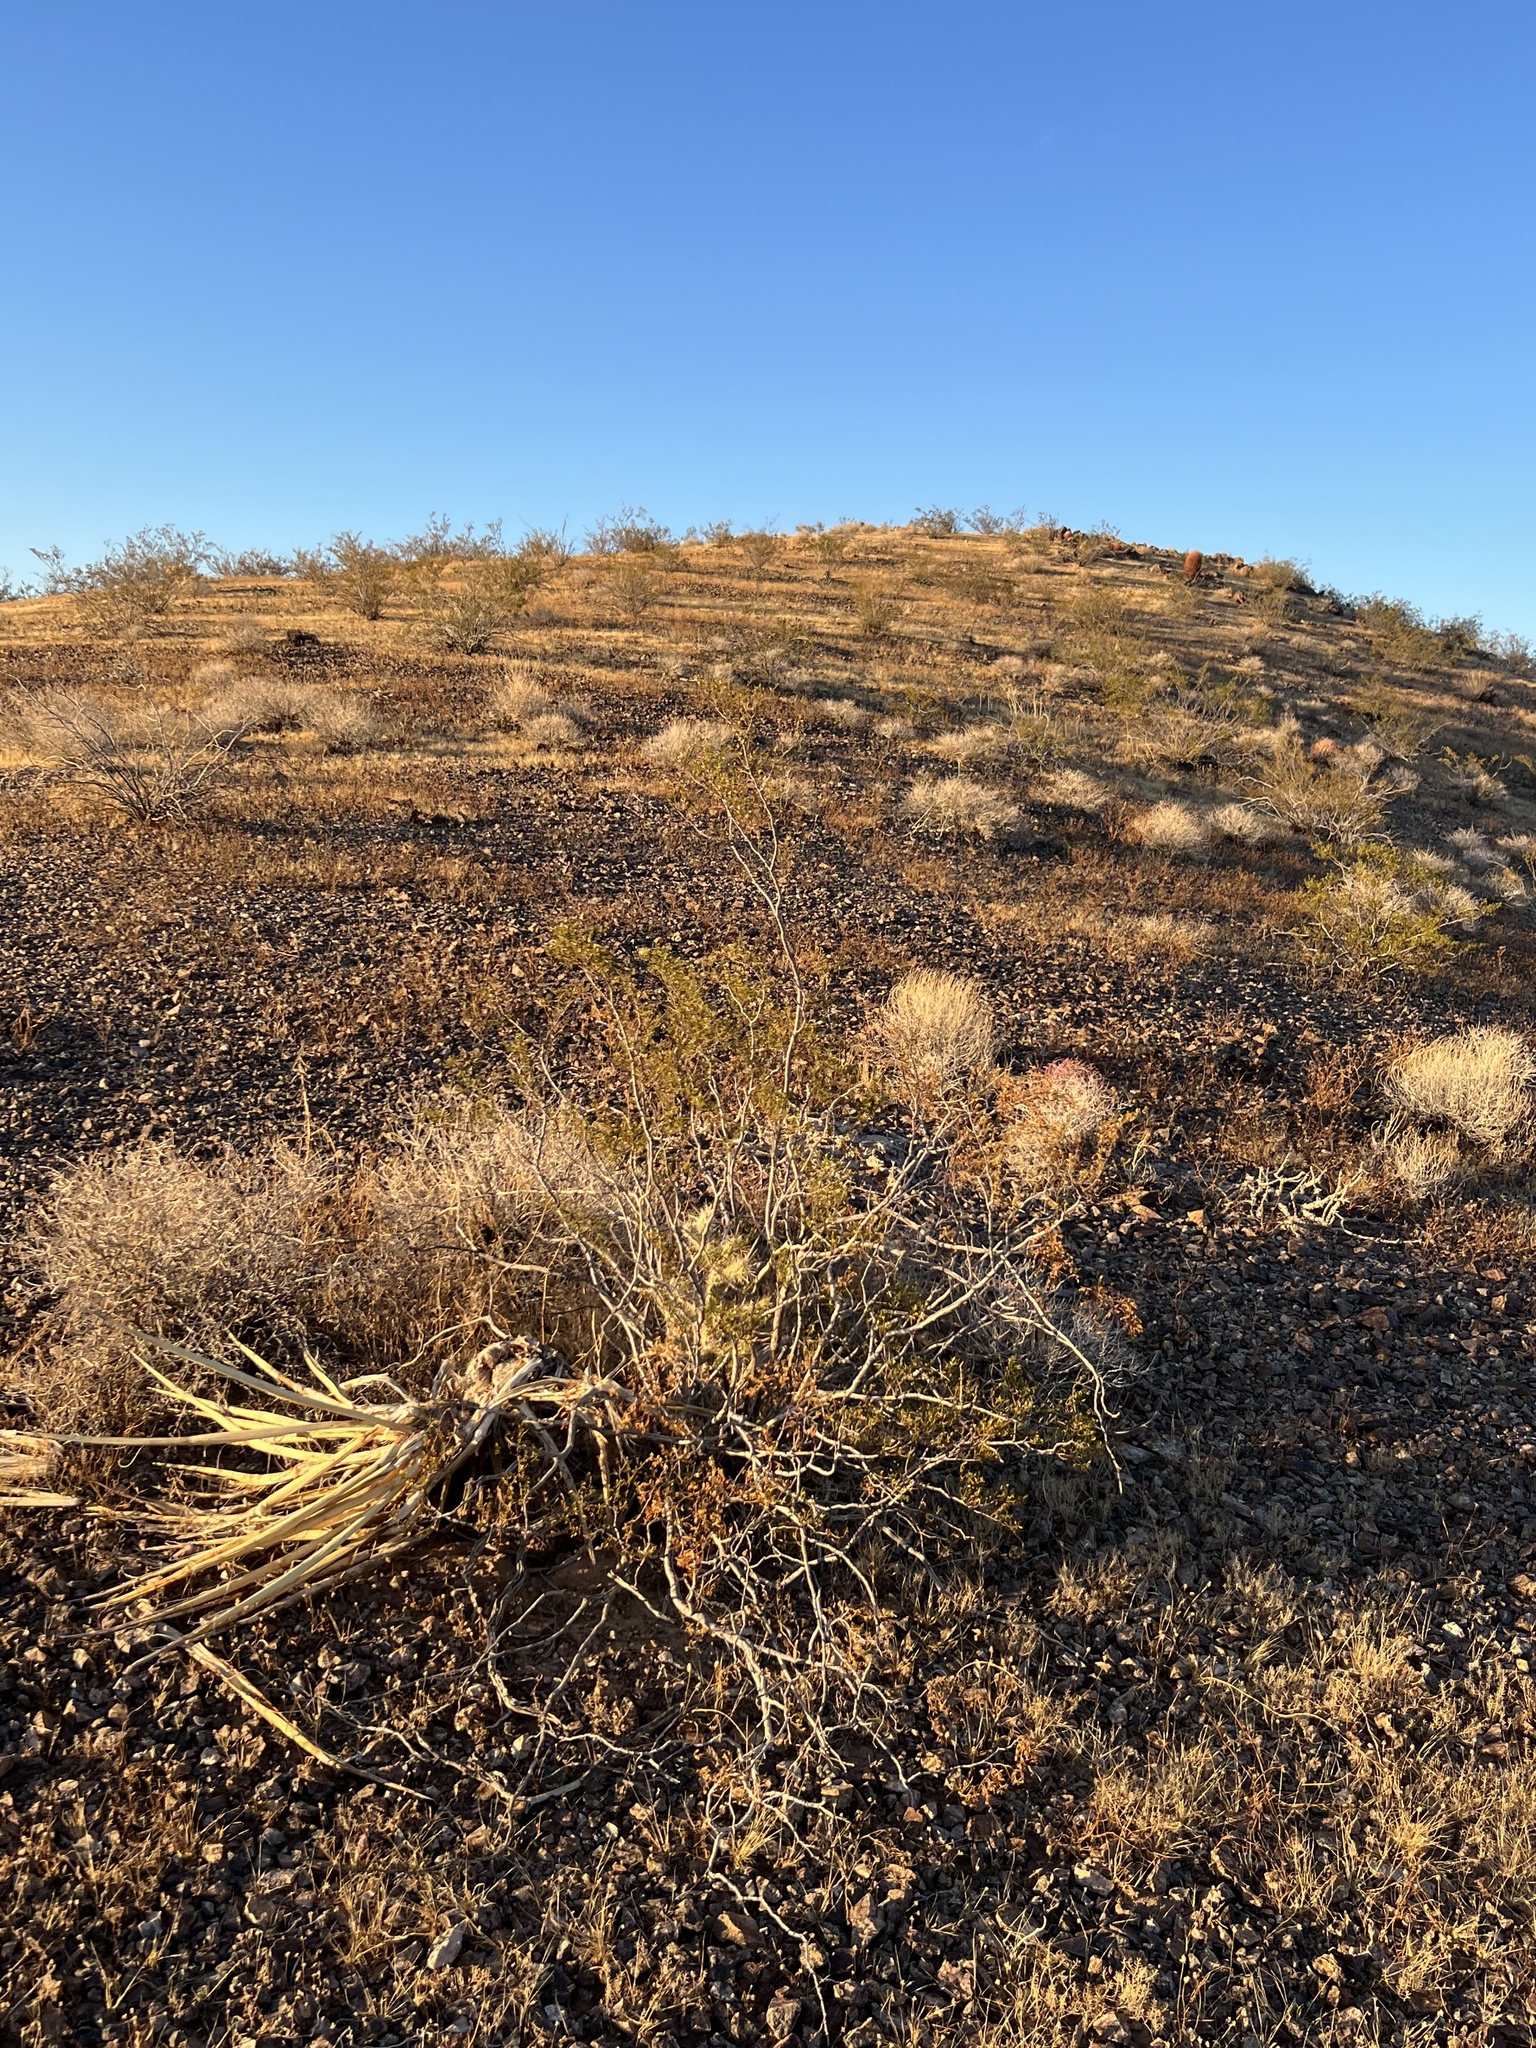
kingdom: Plantae
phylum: Tracheophyta
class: Magnoliopsida
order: Zygophyllales
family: Zygophyllaceae
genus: Larrea
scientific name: Larrea tridentata
